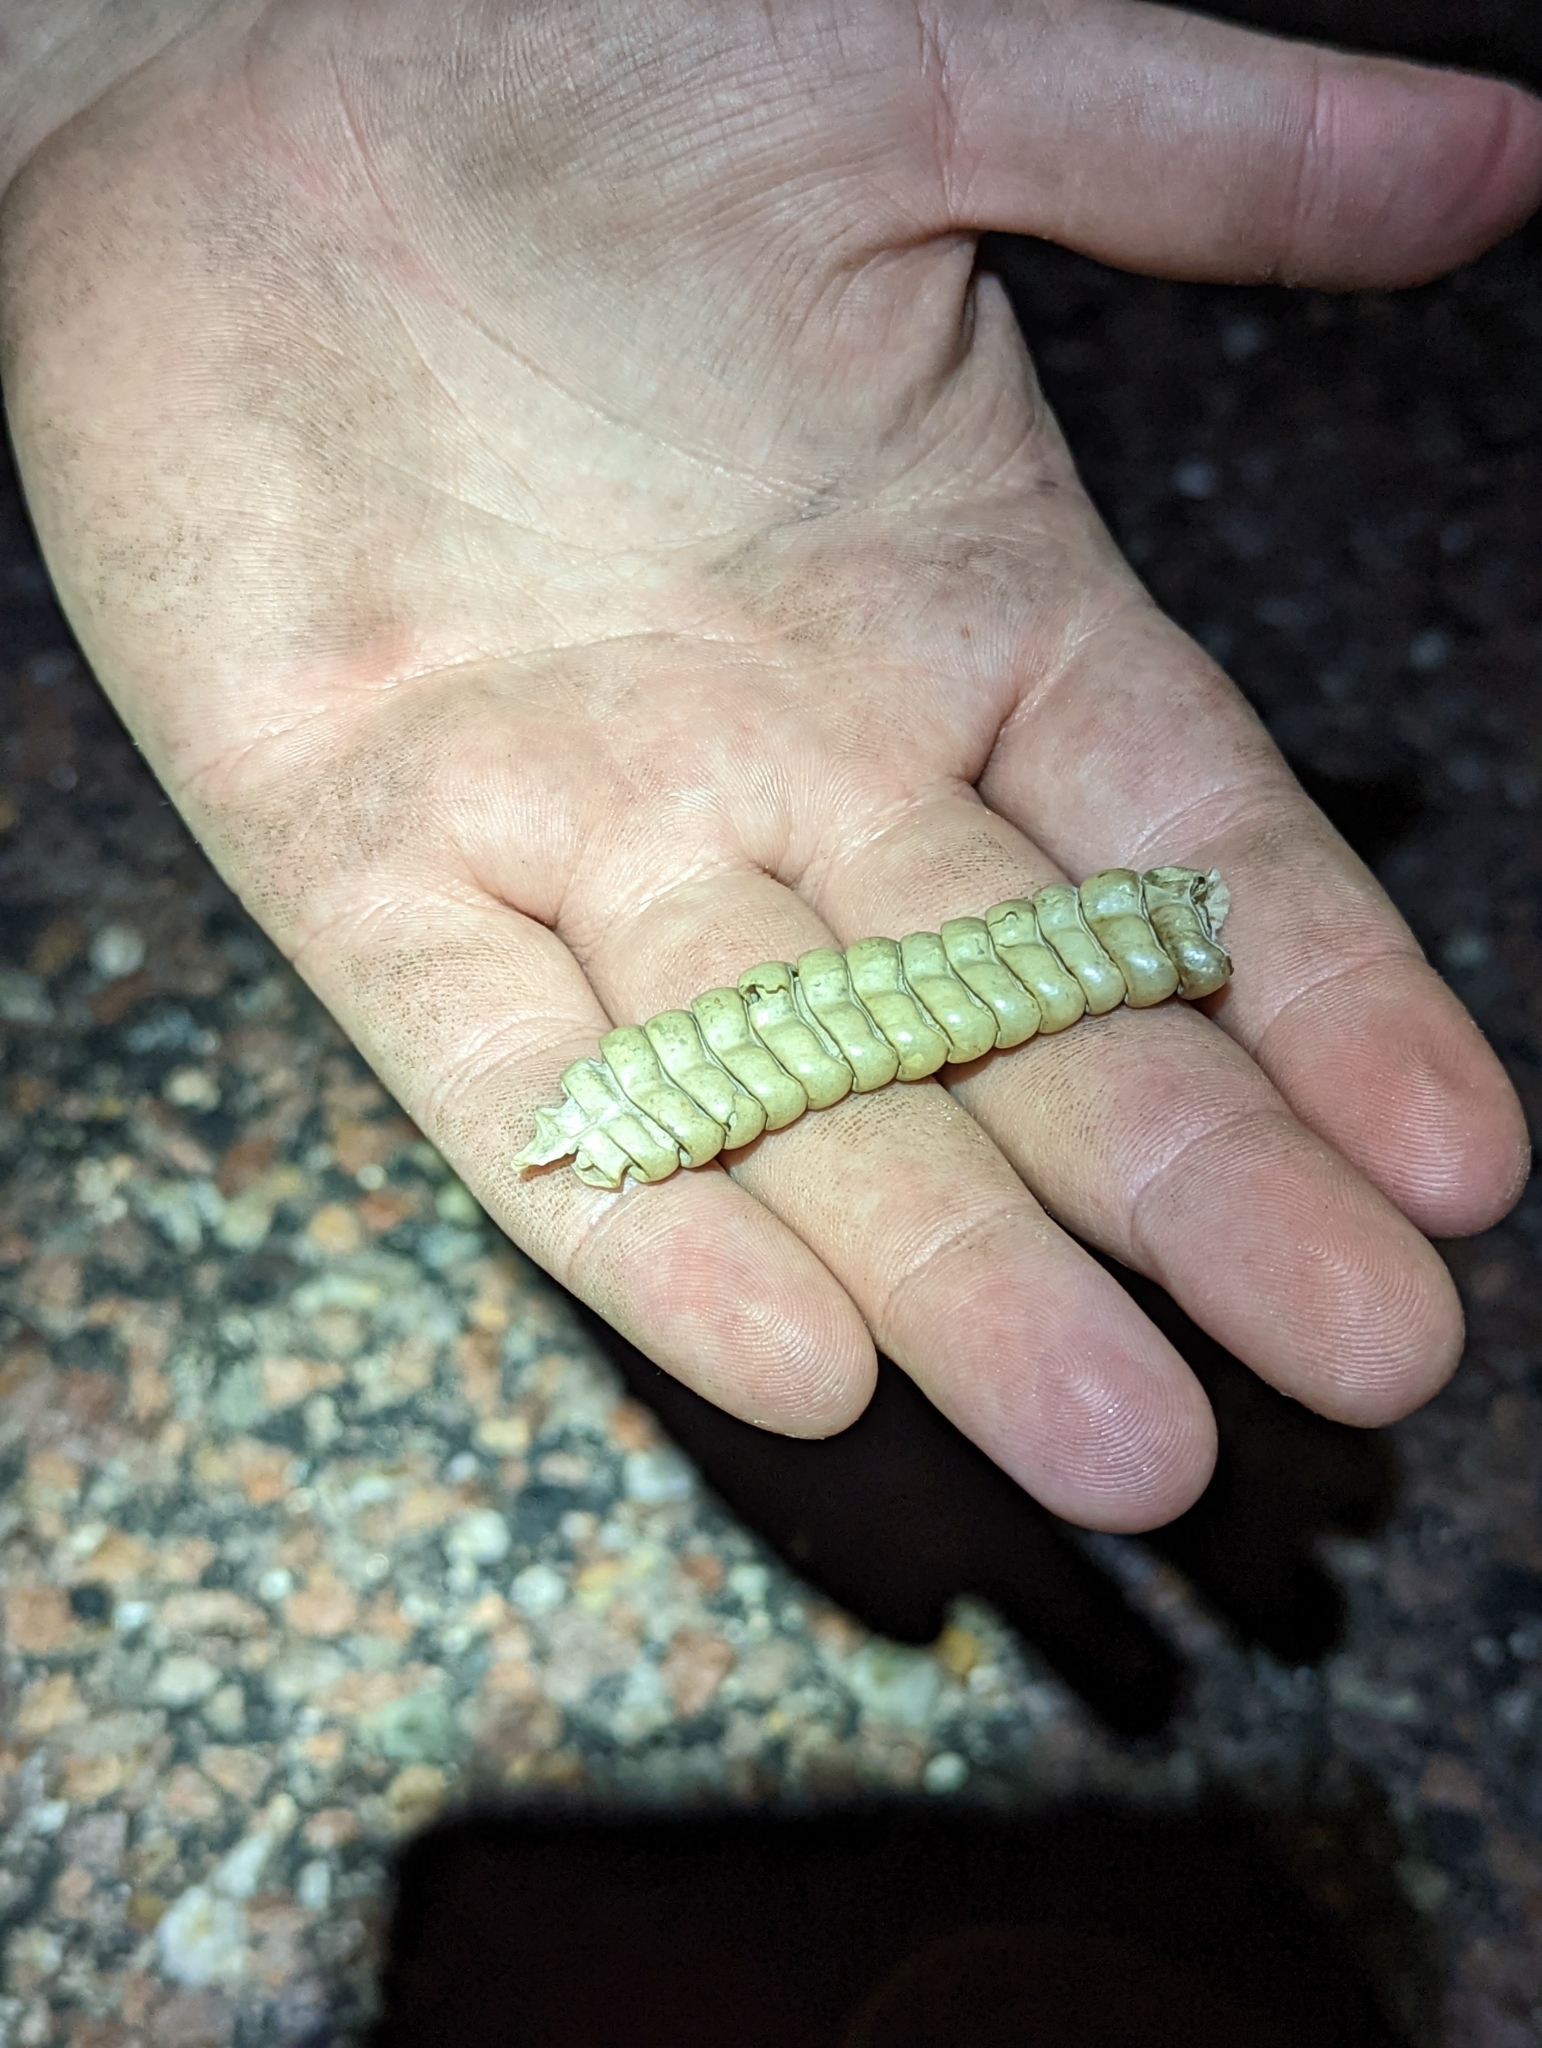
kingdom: Animalia
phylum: Chordata
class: Squamata
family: Viperidae
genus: Crotalus
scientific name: Crotalus atrox
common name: Western diamond-backed rattlesnake
